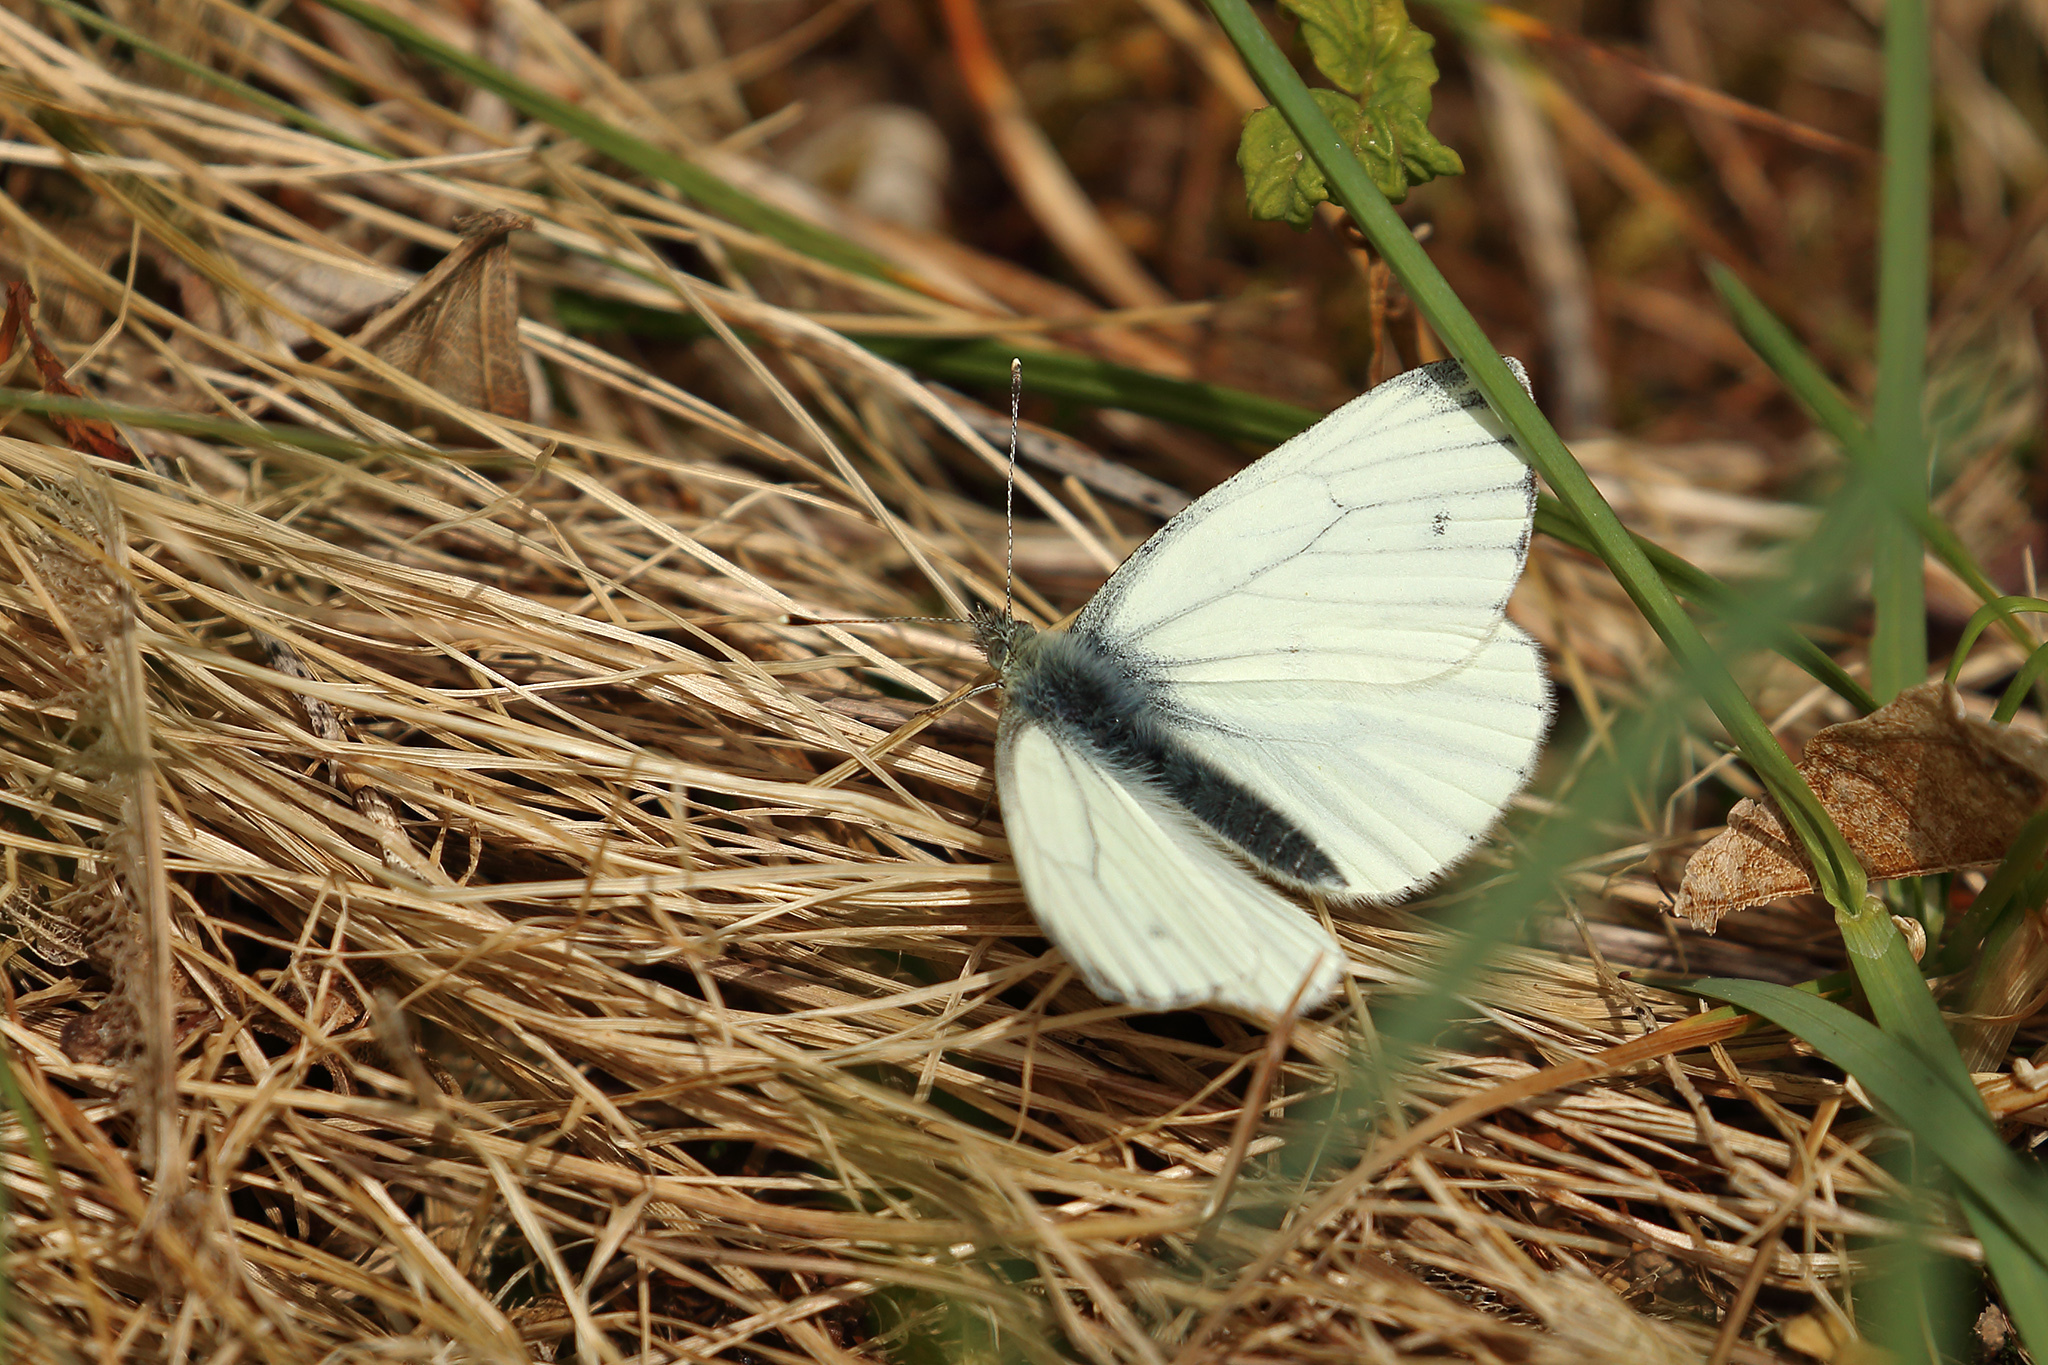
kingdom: Animalia
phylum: Arthropoda
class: Insecta
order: Lepidoptera
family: Pieridae
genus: Pieris
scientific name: Pieris napi
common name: Green-veined white
